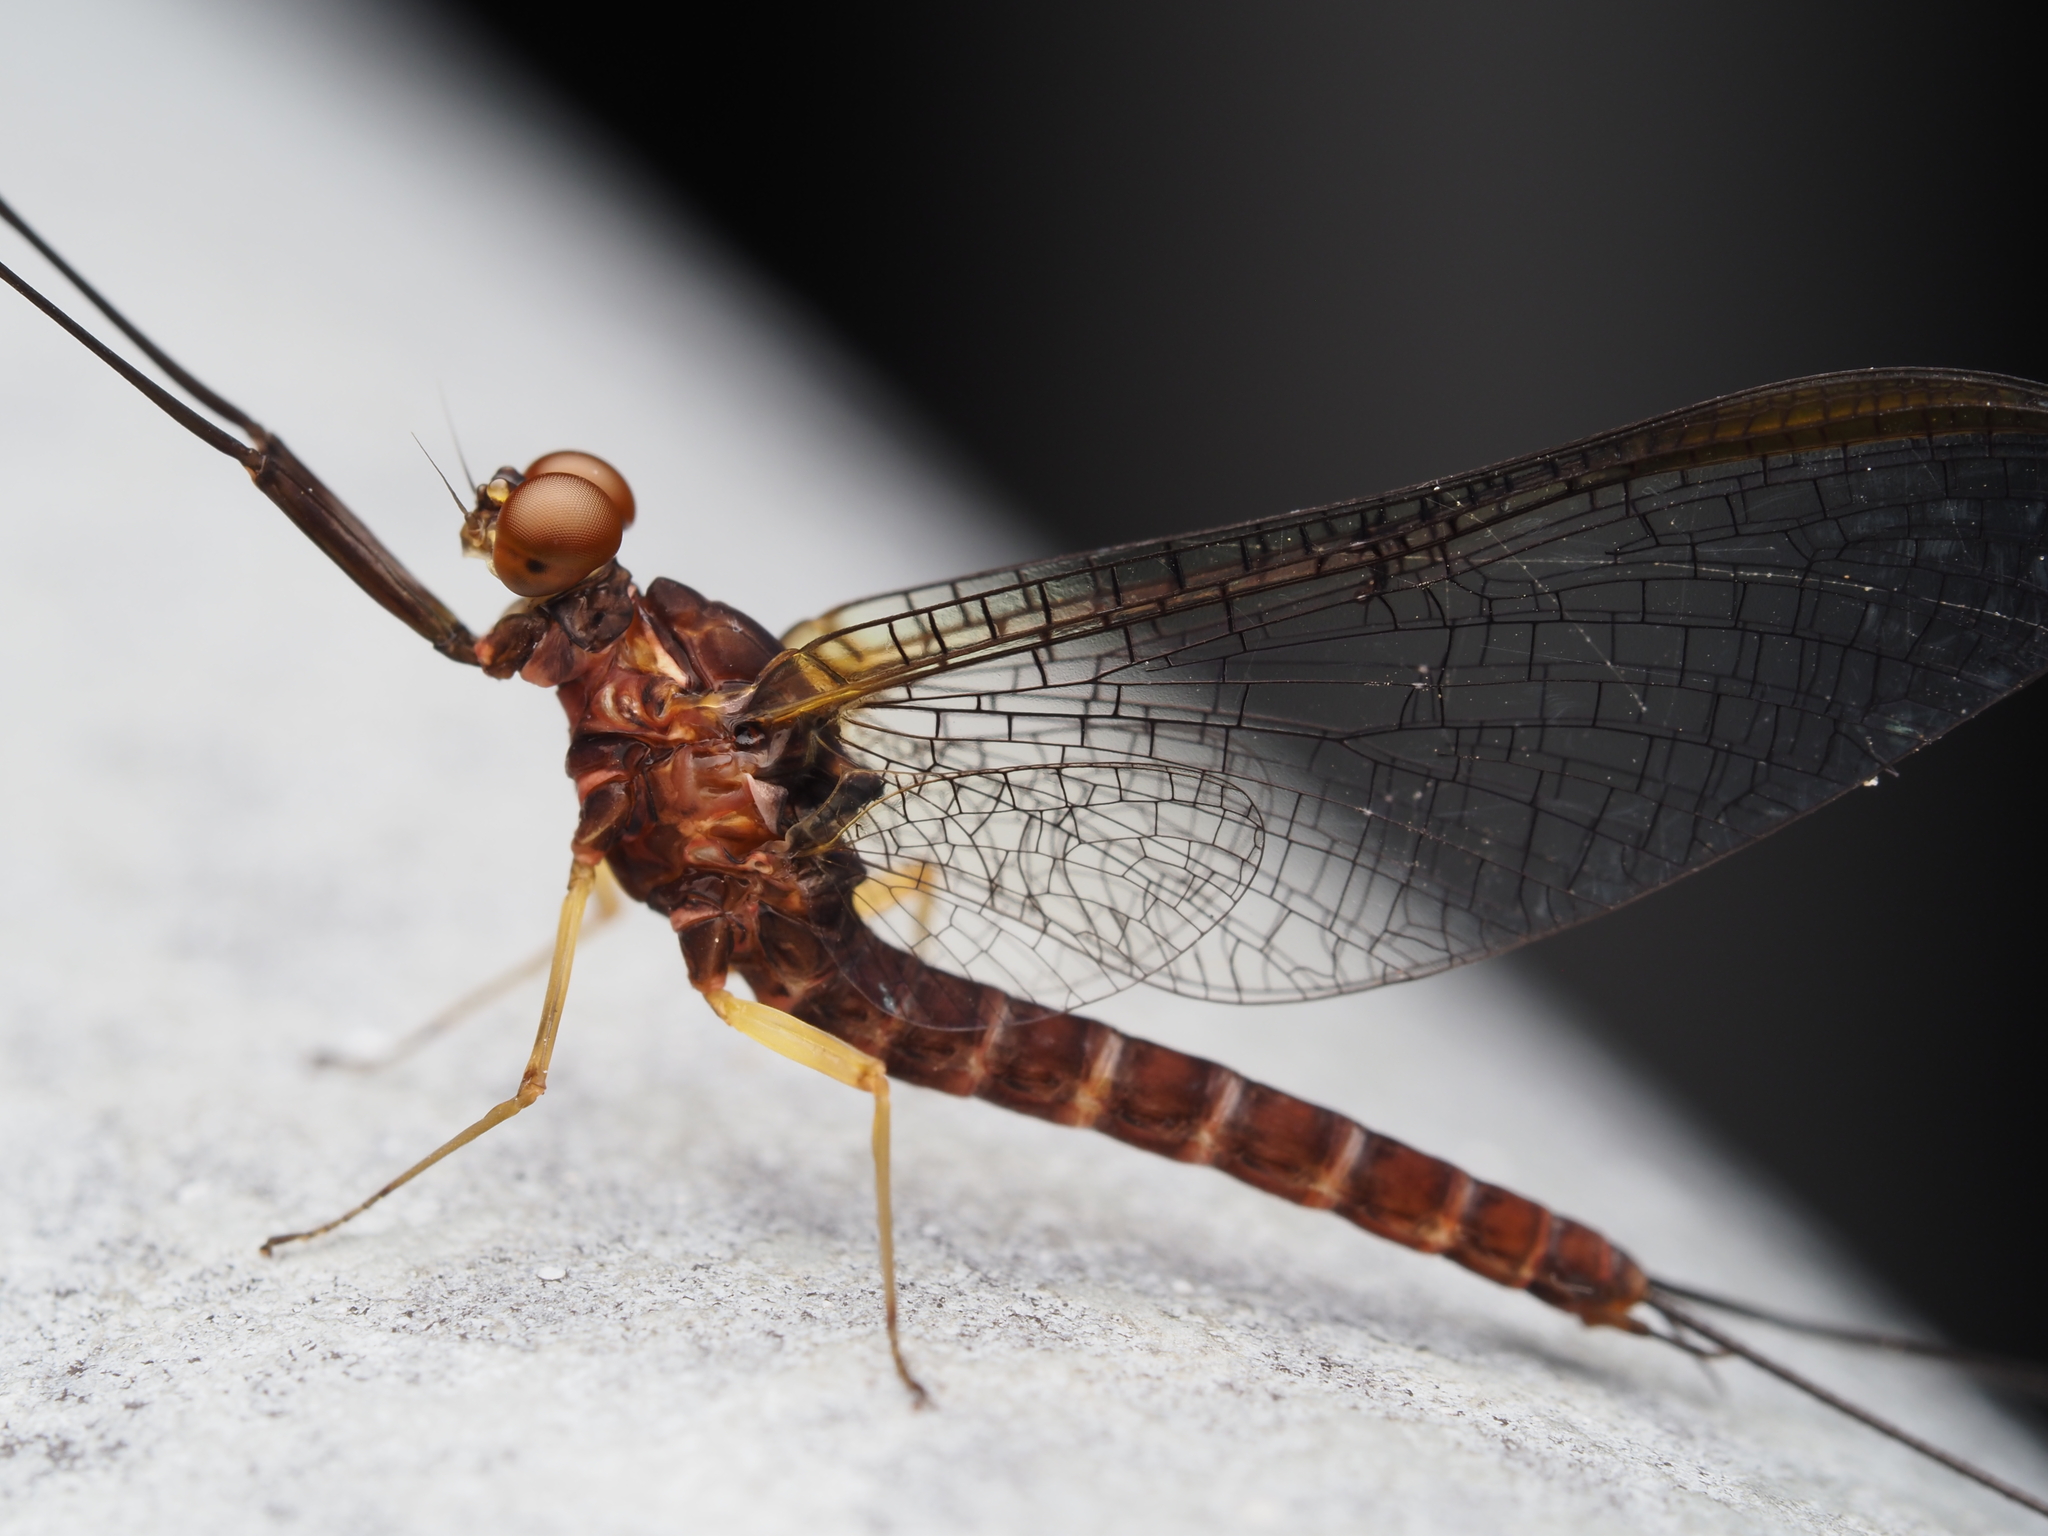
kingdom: Animalia
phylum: Arthropoda
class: Insecta
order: Ephemeroptera
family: Coloburiscidae
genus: Coloburiscus
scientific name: Coloburiscus humeralis
